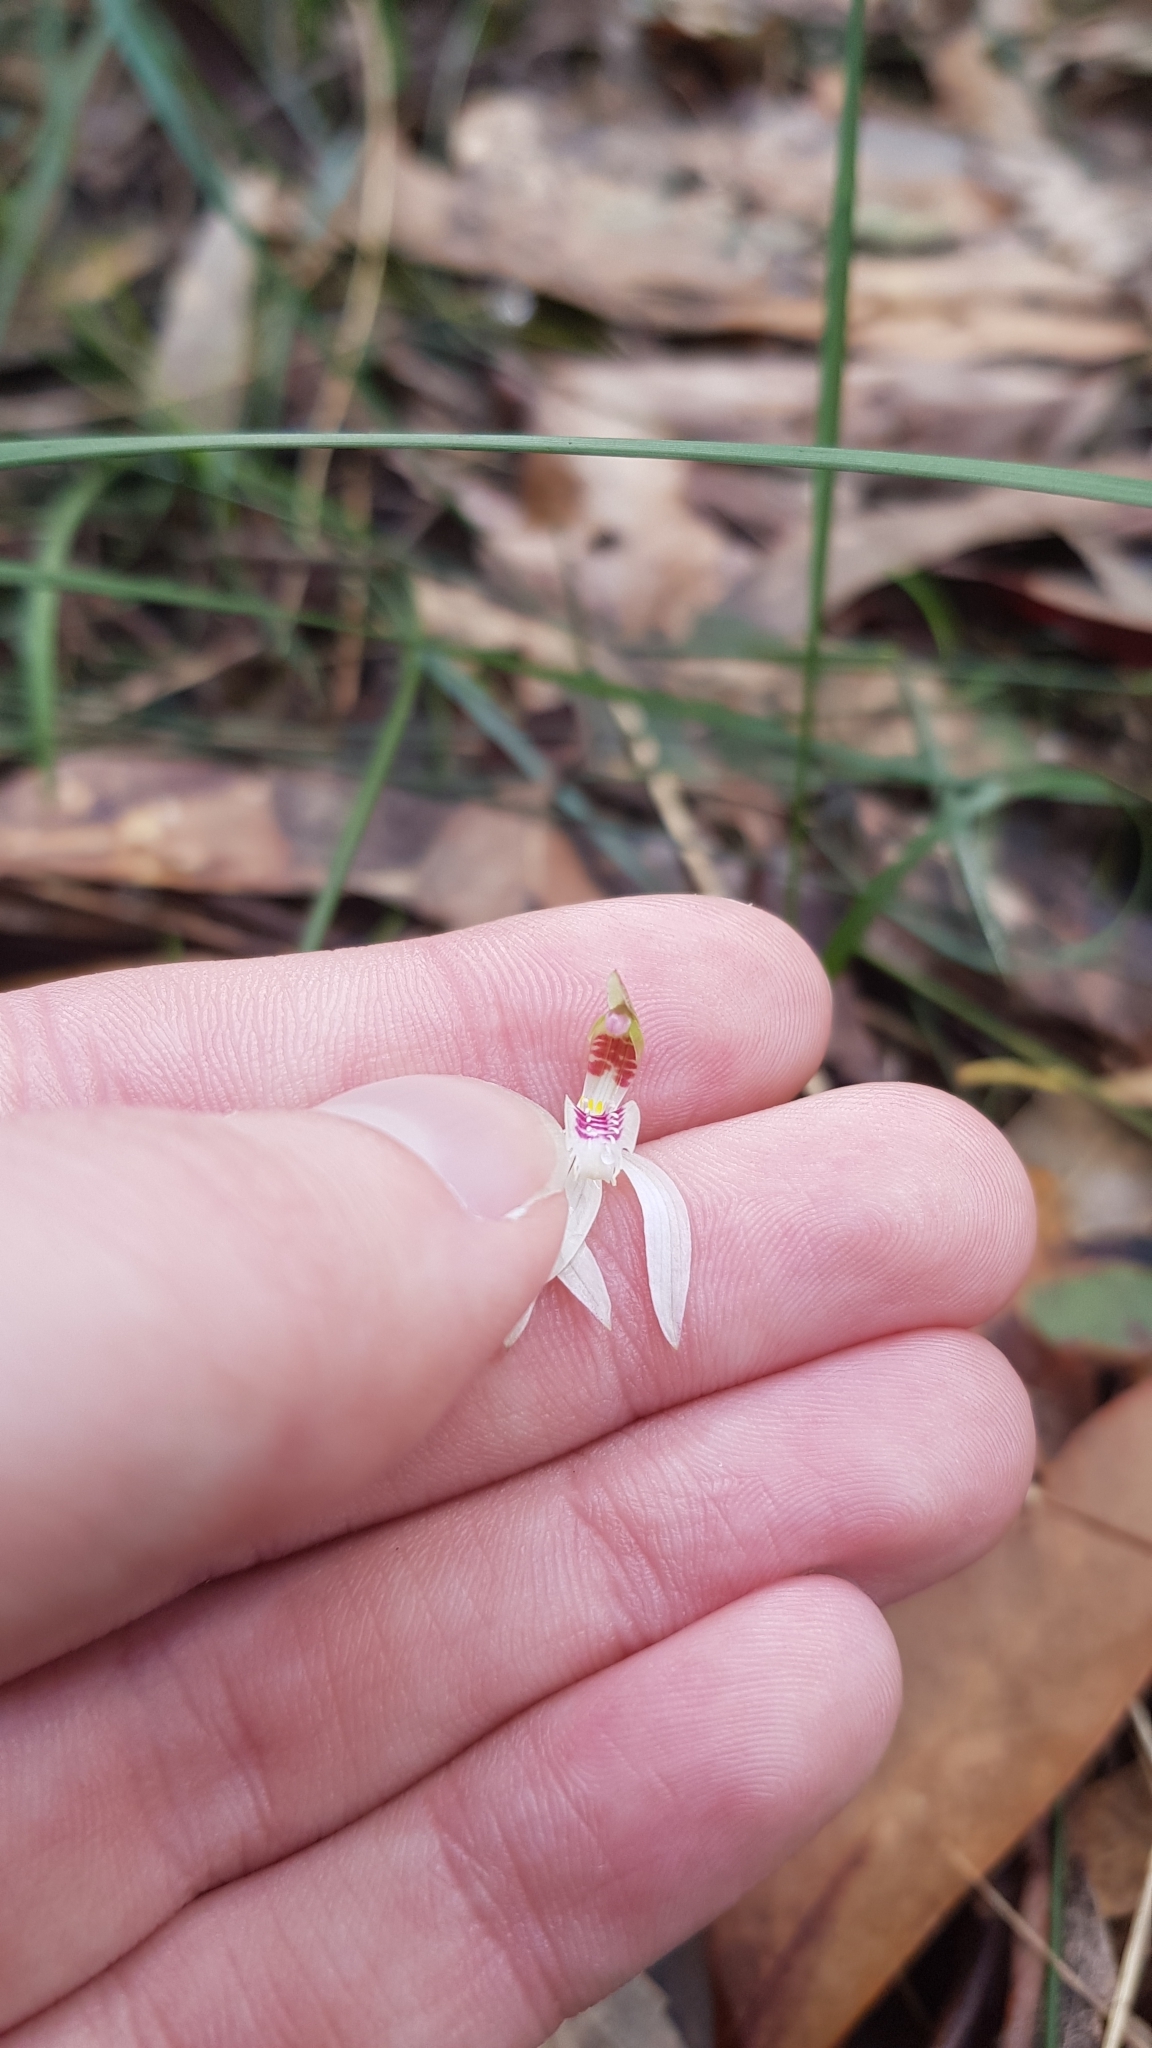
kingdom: Plantae
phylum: Tracheophyta
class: Liliopsida
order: Asparagales
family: Orchidaceae
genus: Caladenia
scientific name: Caladenia catenata
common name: White caladenia
